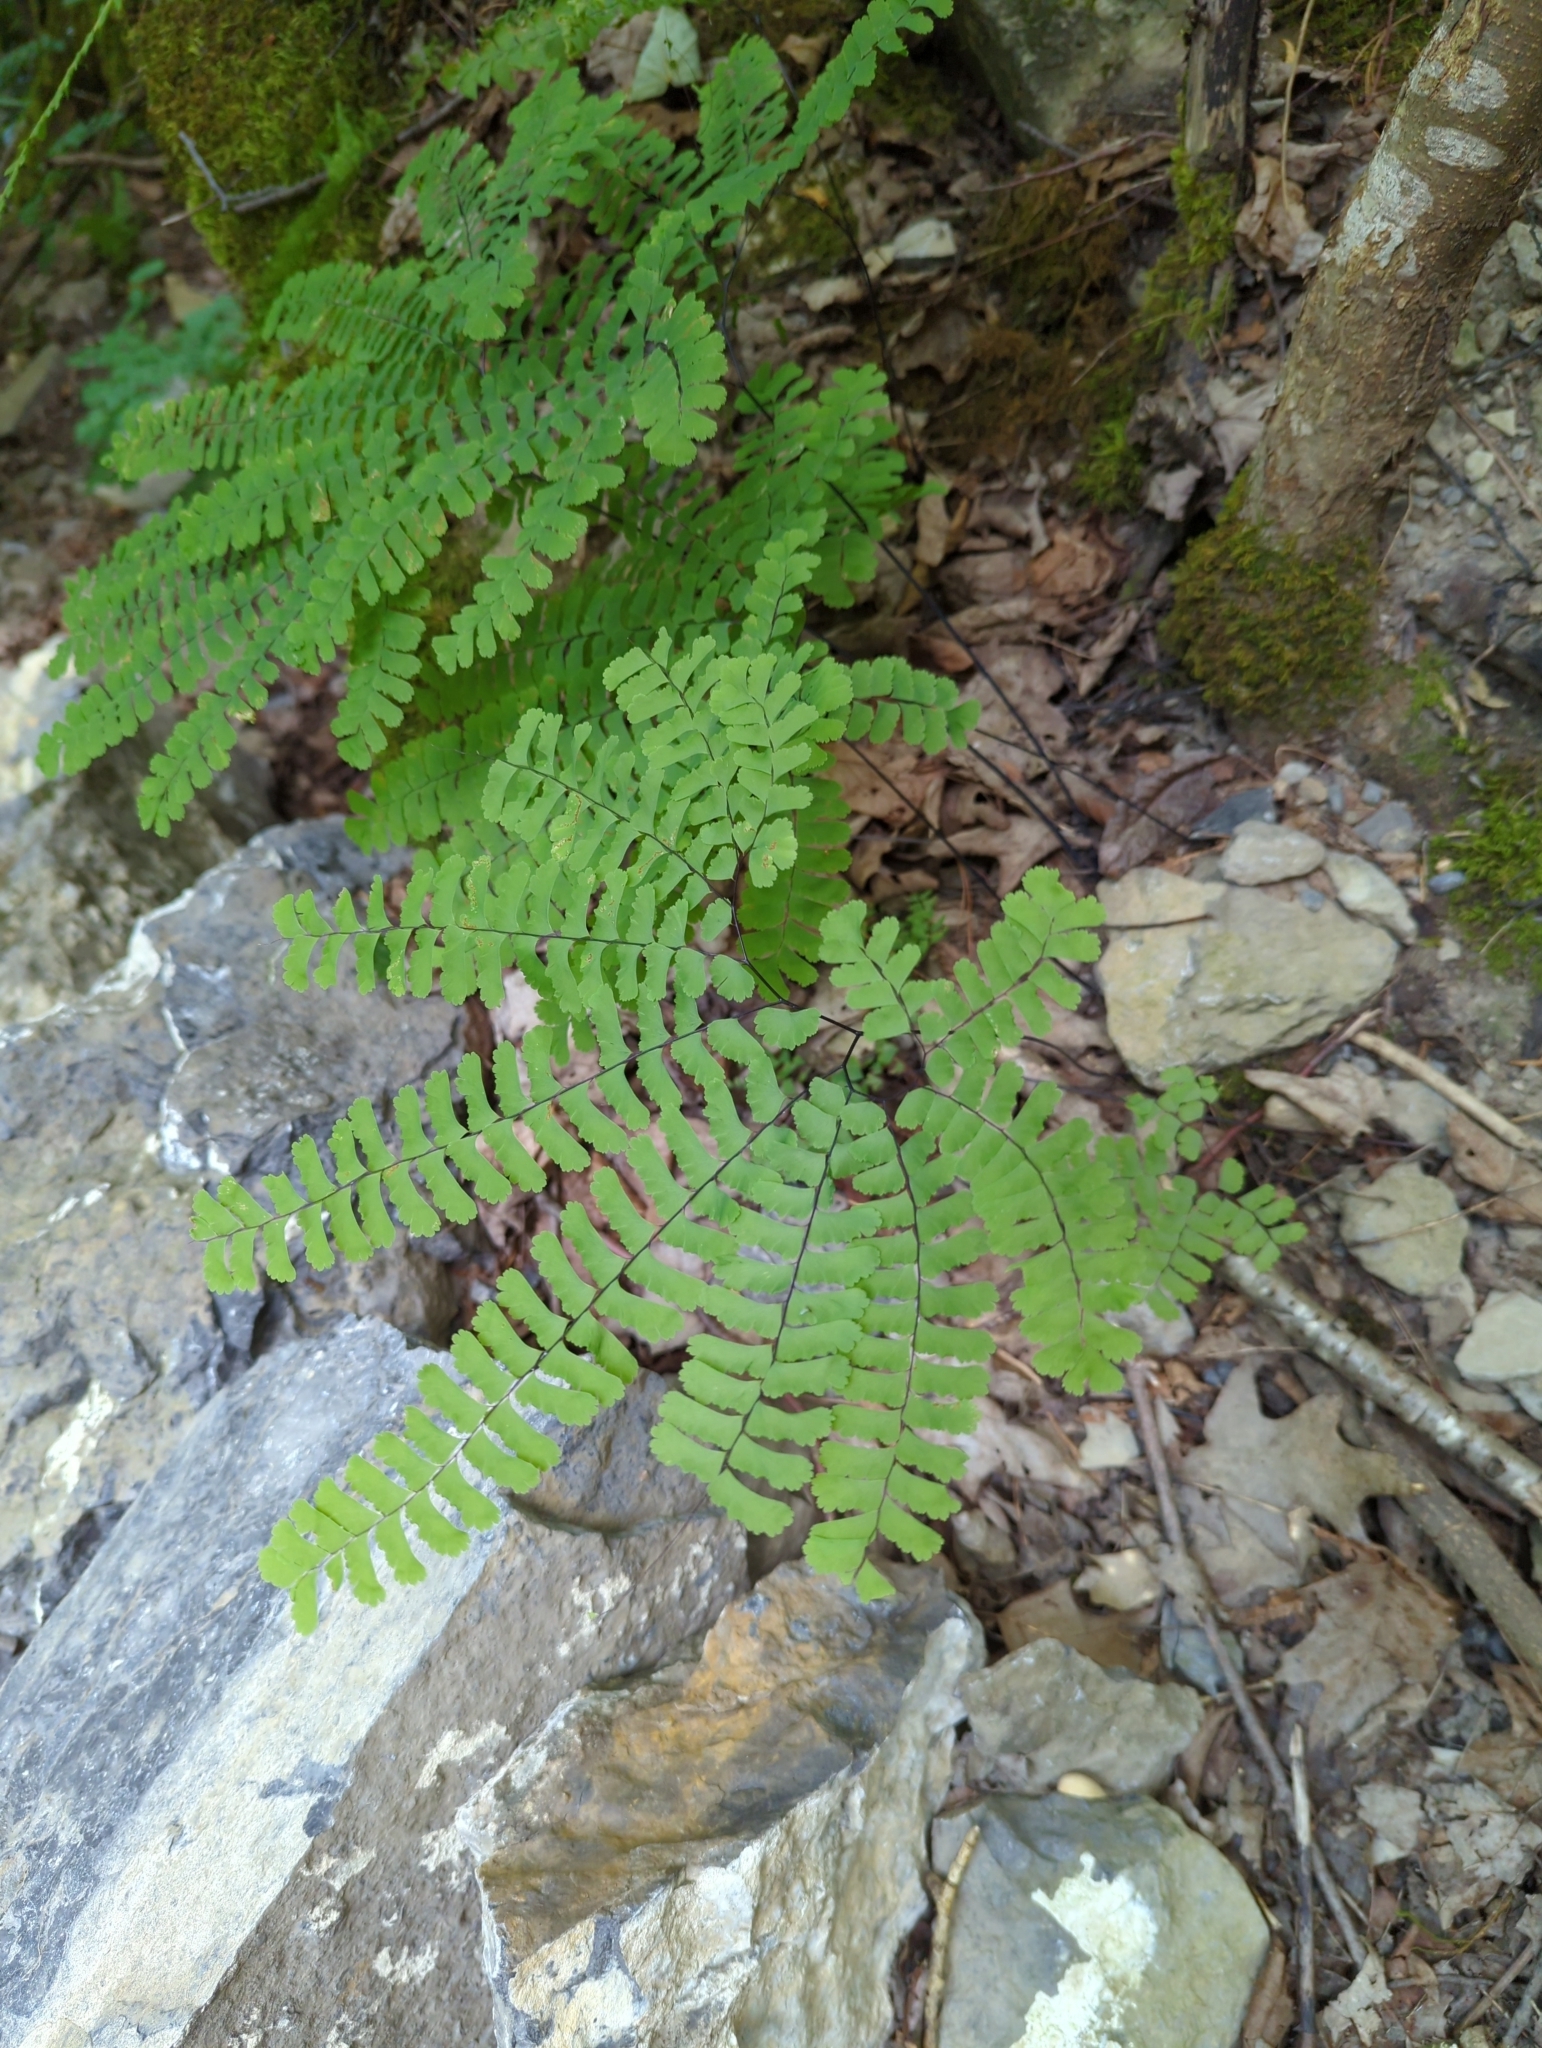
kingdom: Plantae
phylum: Tracheophyta
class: Polypodiopsida
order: Polypodiales
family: Pteridaceae
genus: Adiantum
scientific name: Adiantum pedatum
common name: Five-finger fern
